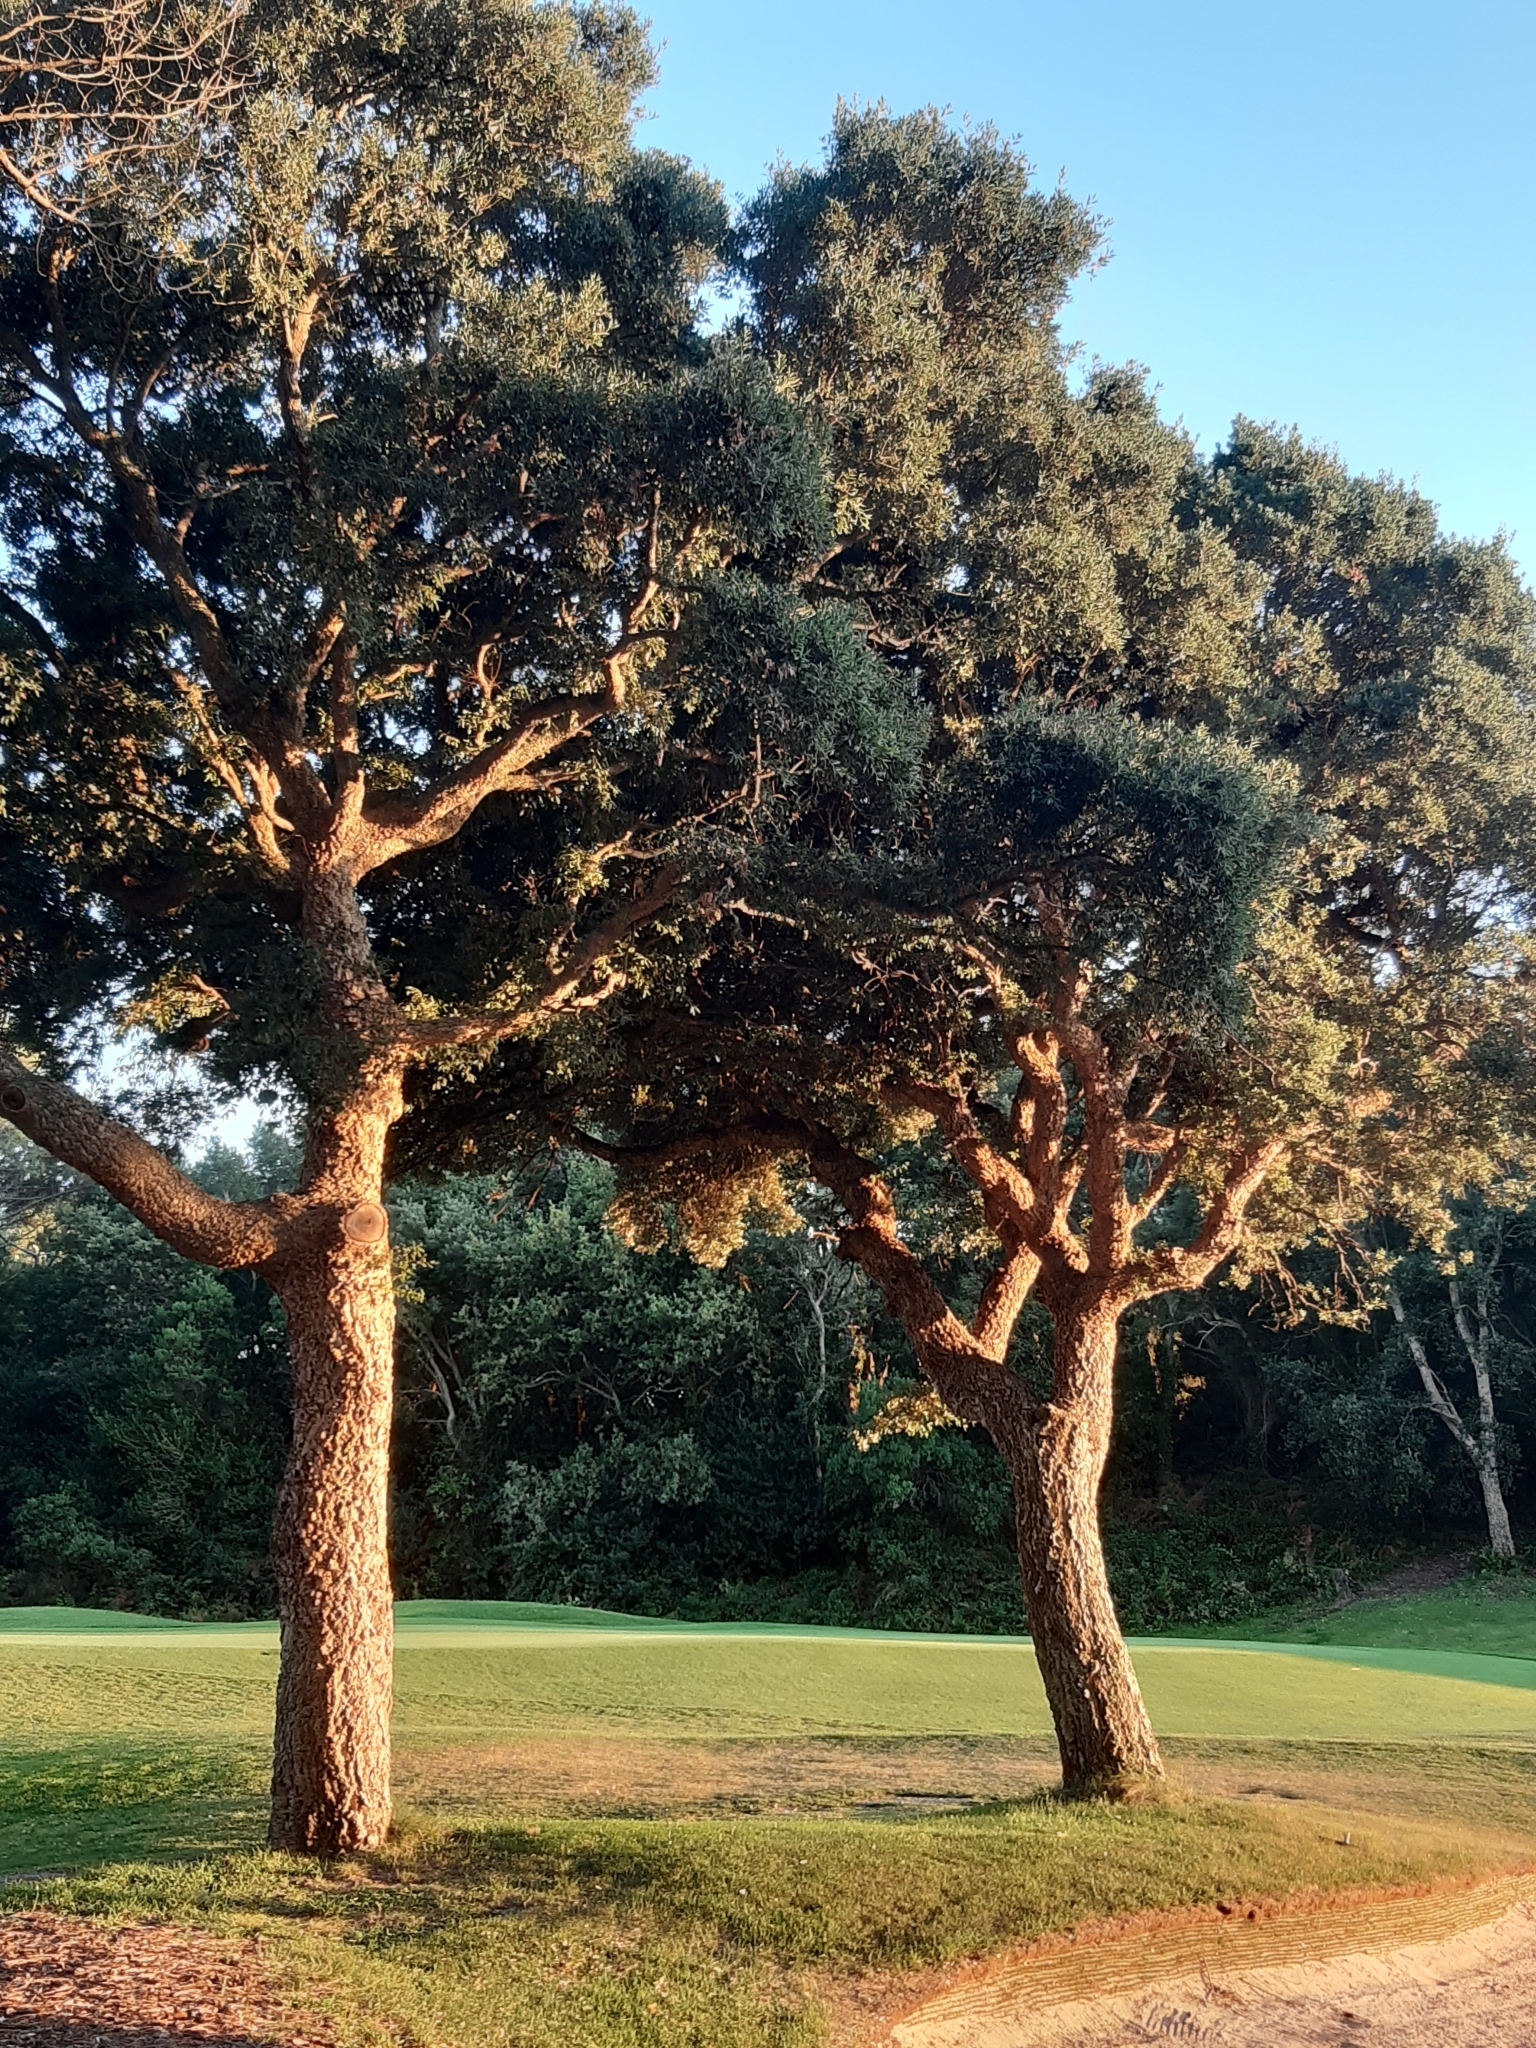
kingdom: Plantae
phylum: Tracheophyta
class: Magnoliopsida
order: Fagales
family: Fagaceae
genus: Quercus
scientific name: Quercus suber
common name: Cork oak
